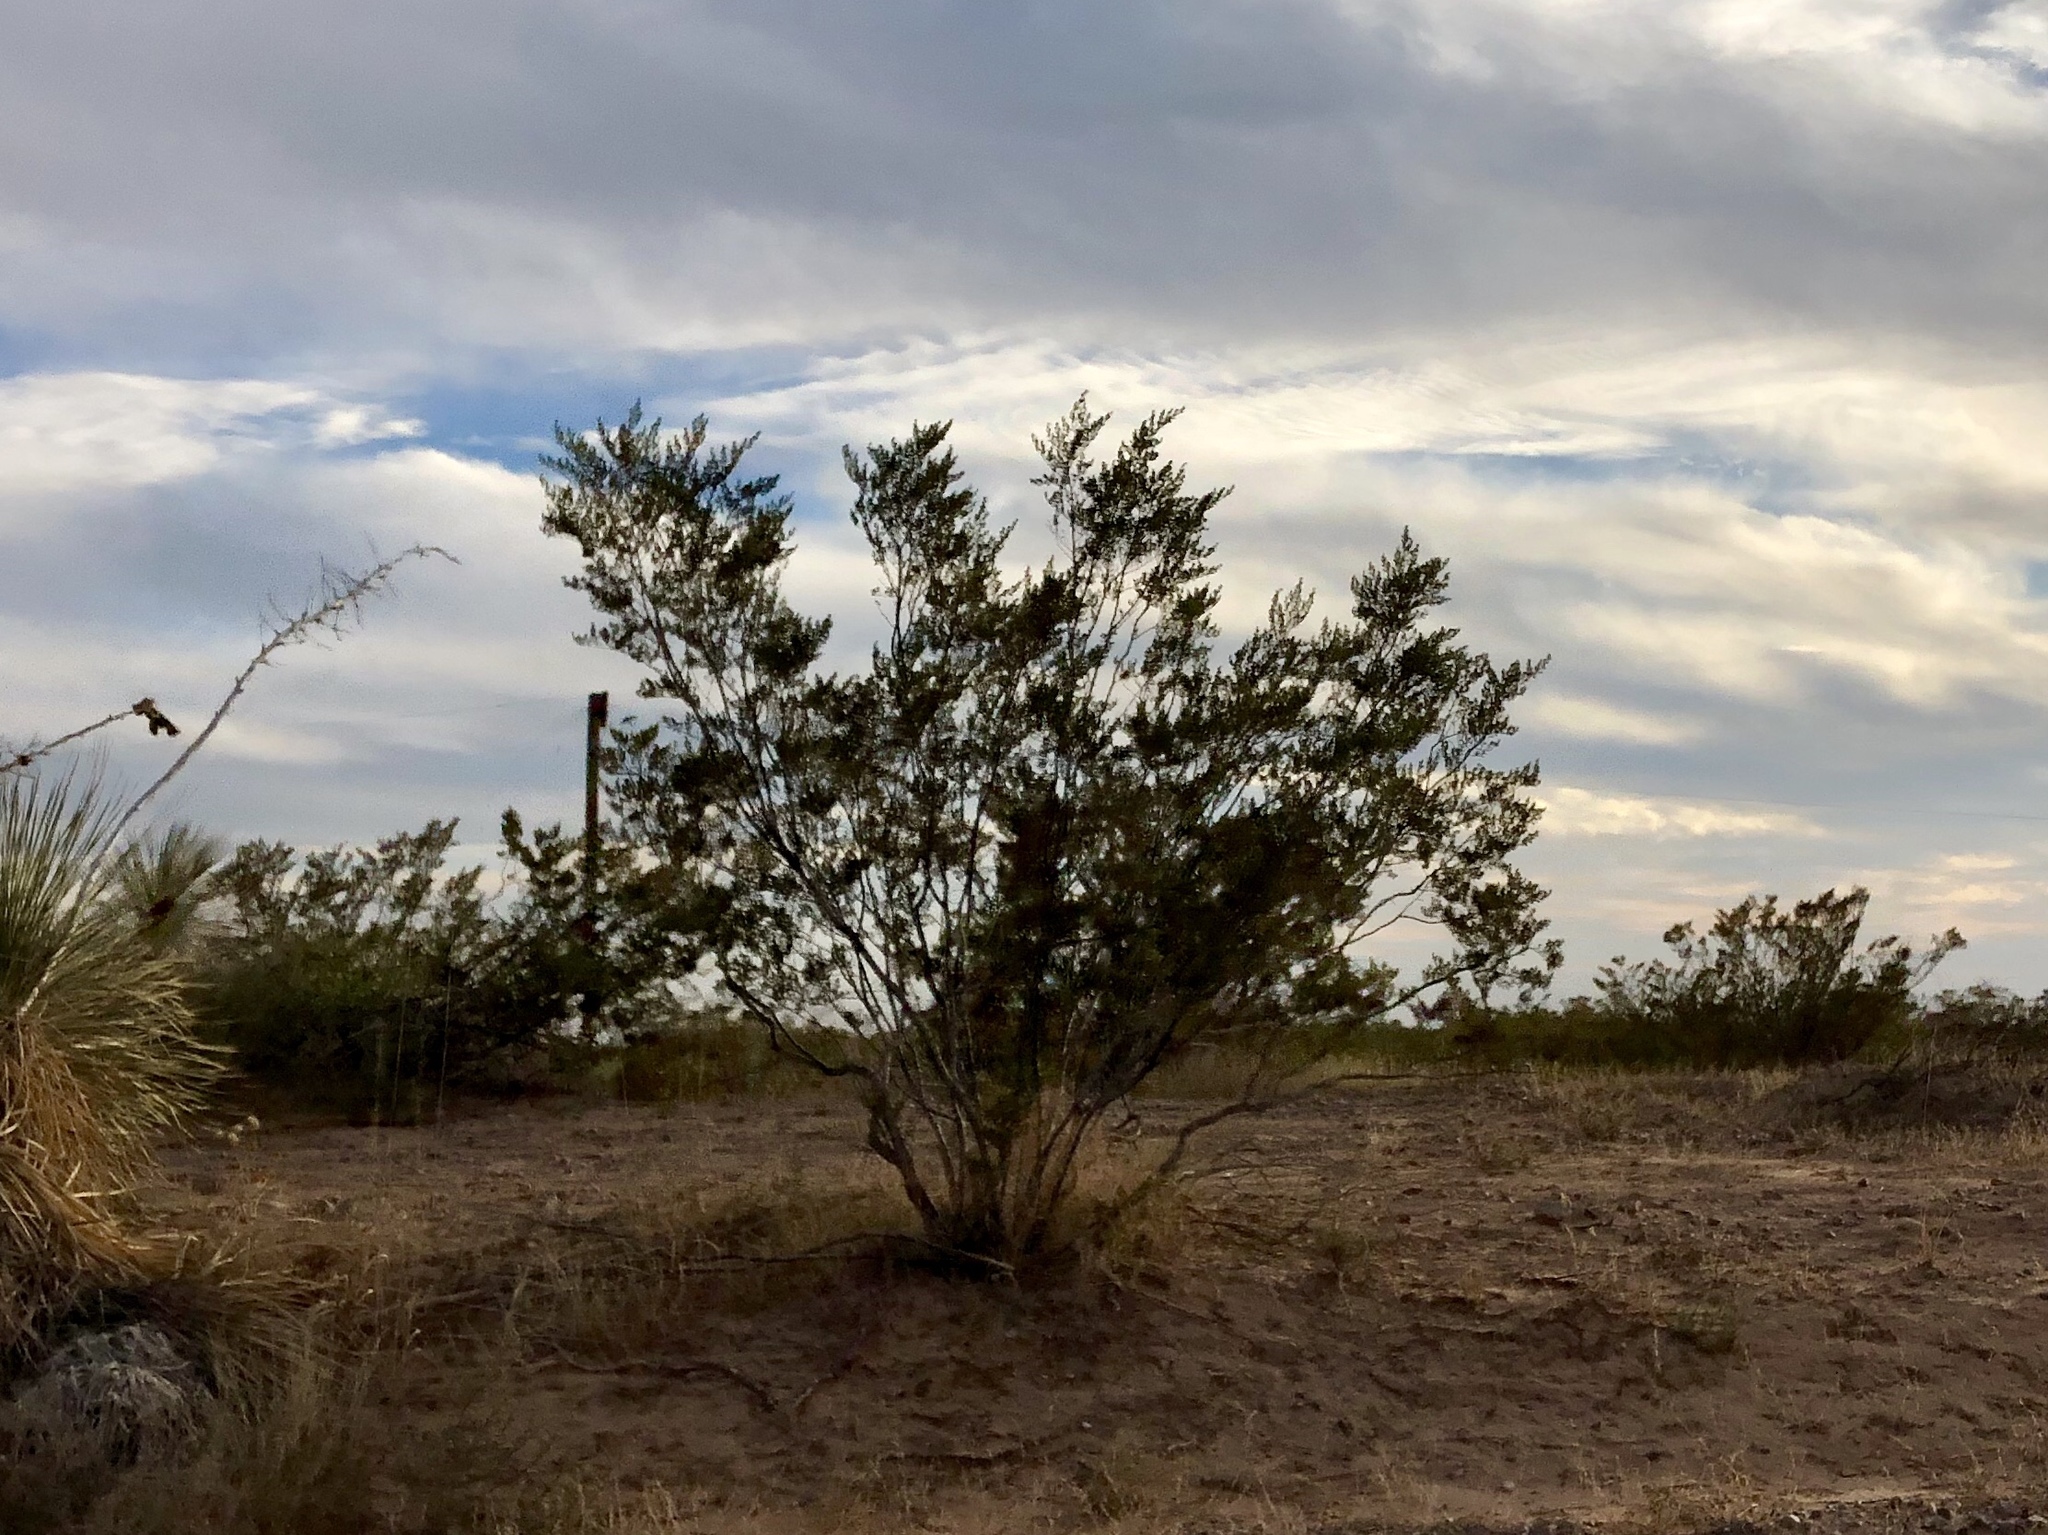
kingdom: Plantae
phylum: Tracheophyta
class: Magnoliopsida
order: Zygophyllales
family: Zygophyllaceae
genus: Larrea
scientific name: Larrea tridentata
